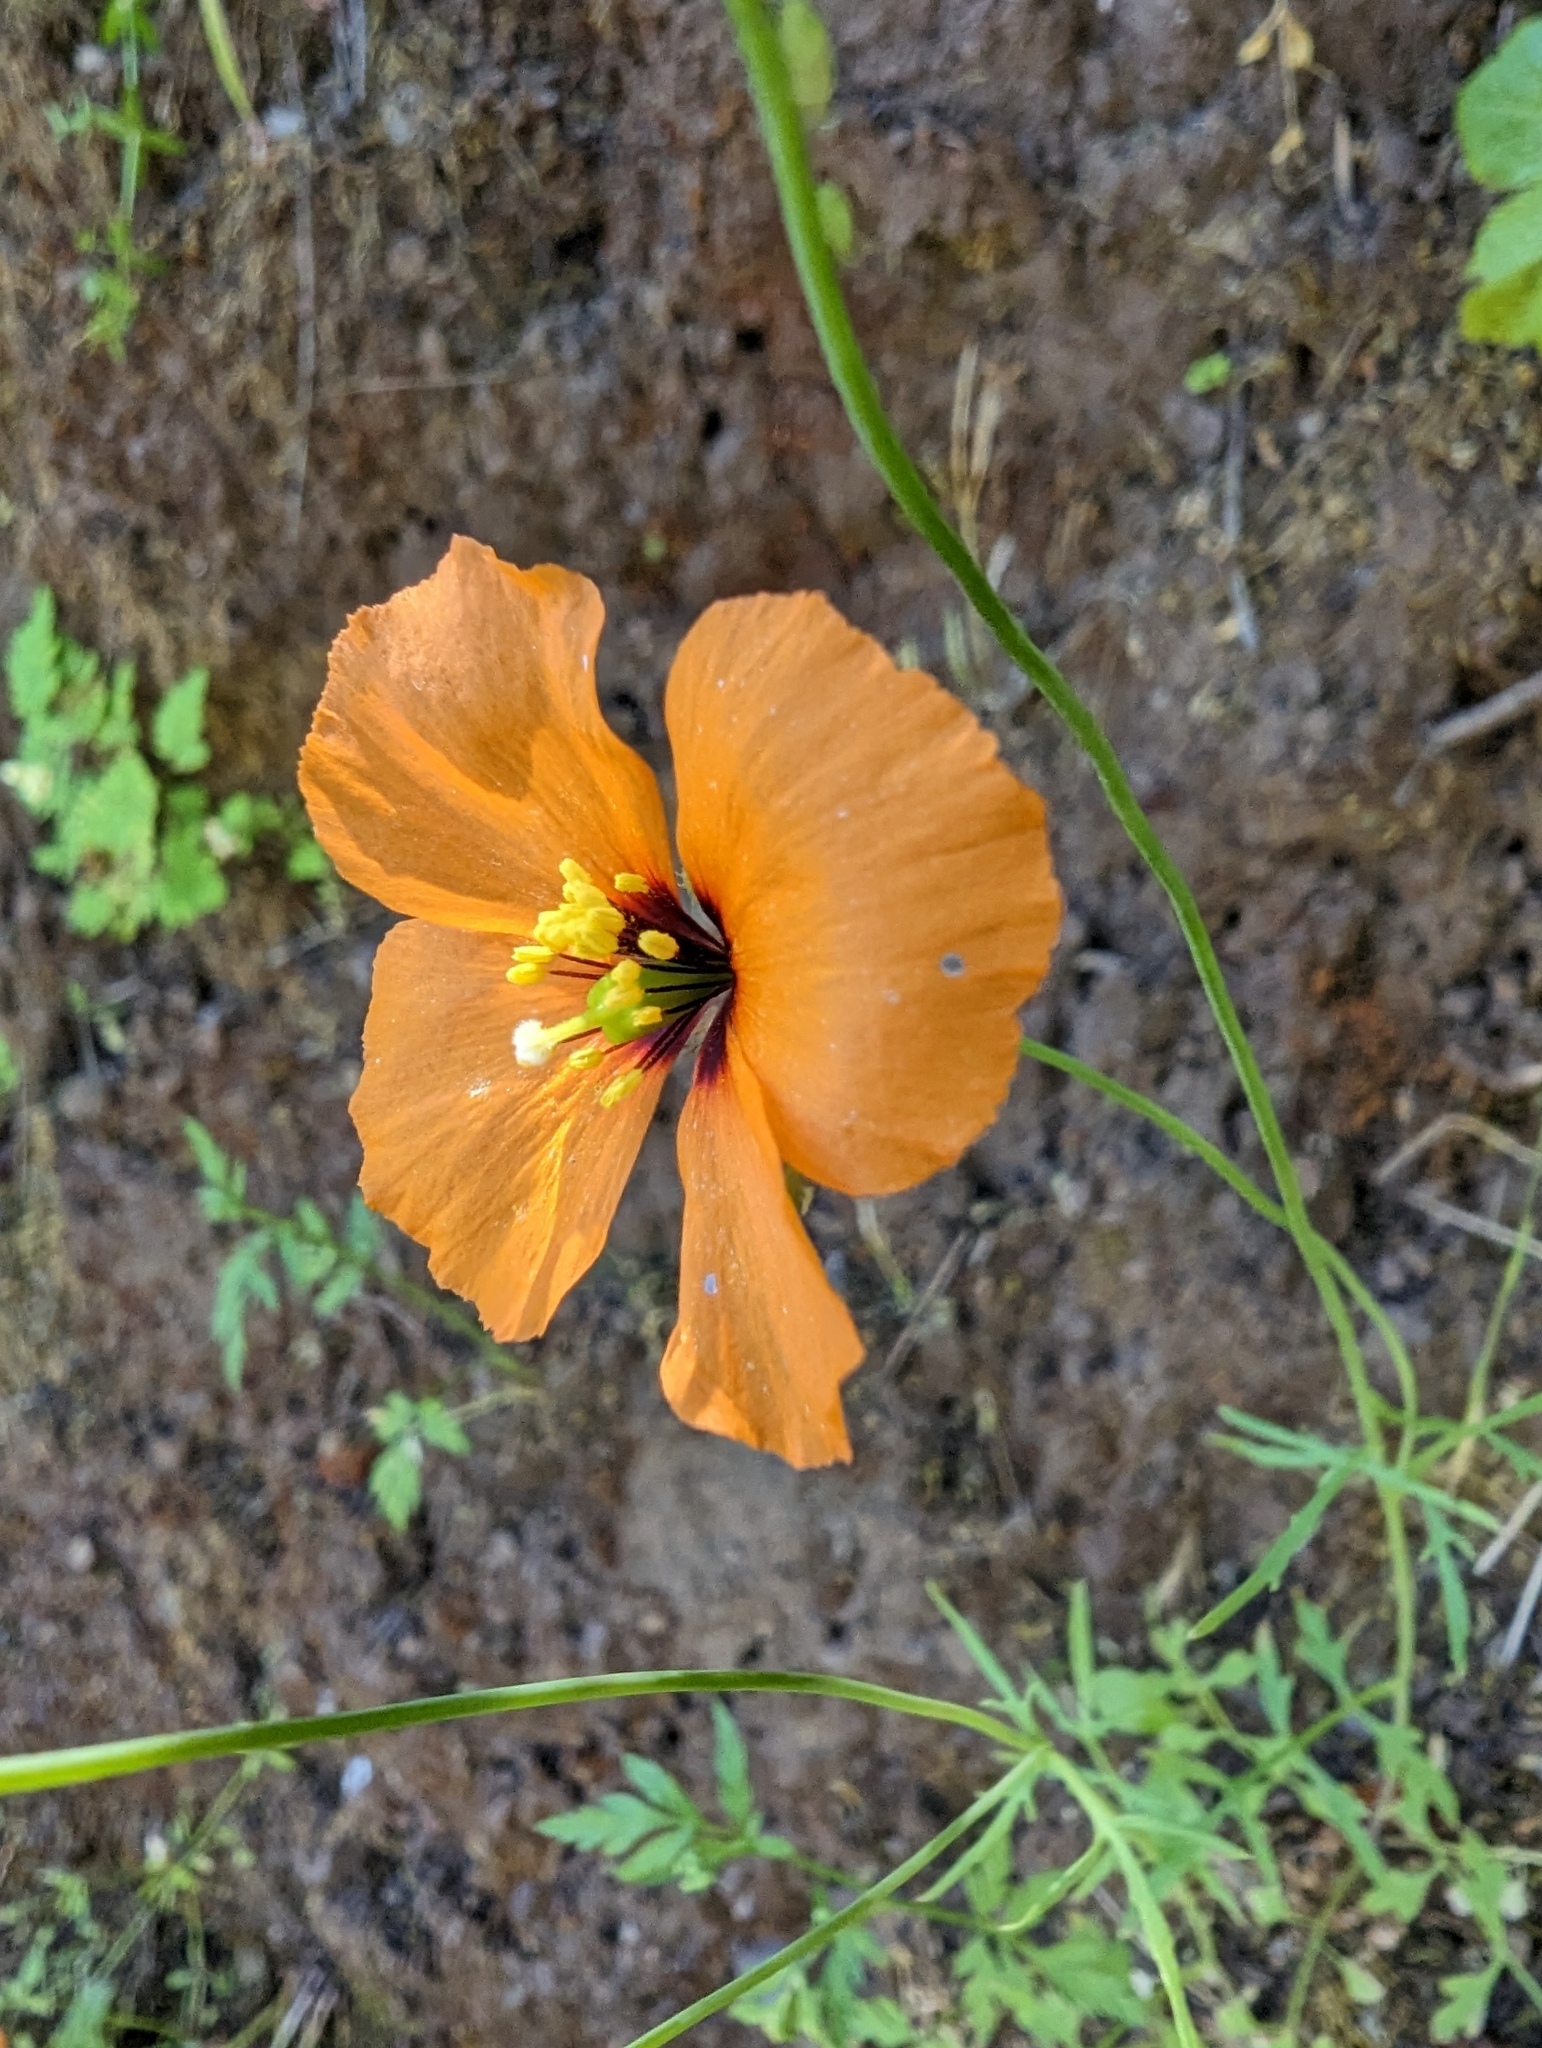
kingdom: Plantae
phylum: Tracheophyta
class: Magnoliopsida
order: Ranunculales
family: Papaveraceae
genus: Stylomecon
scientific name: Stylomecon heterophylla
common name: Flaming-poppy
